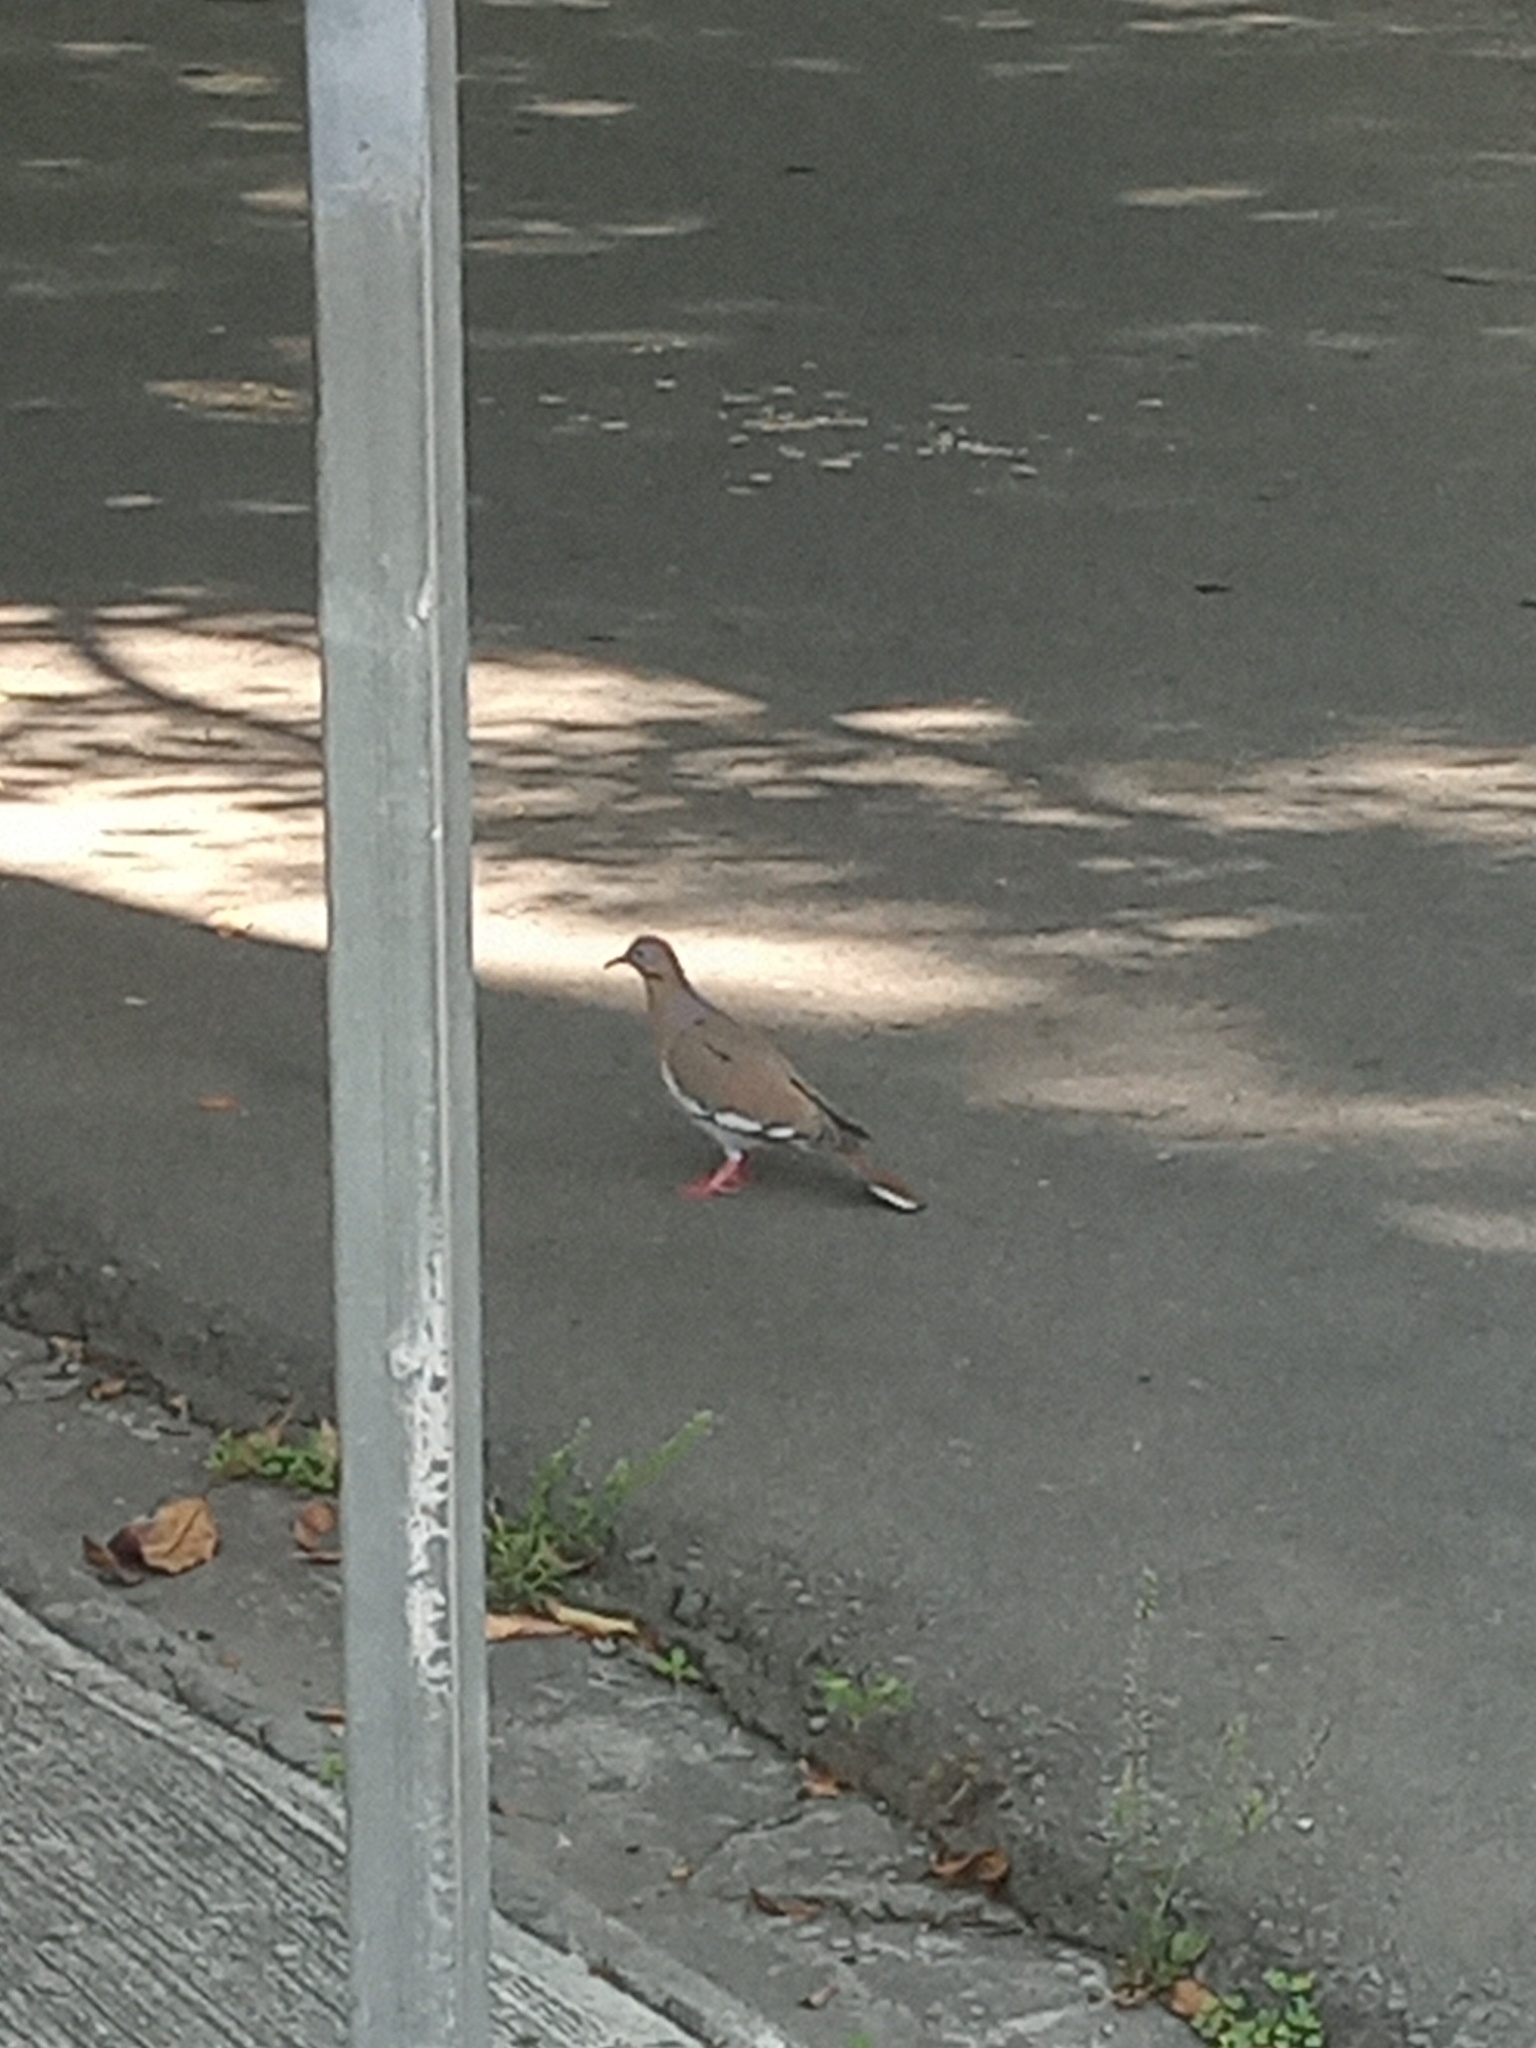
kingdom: Animalia
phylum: Chordata
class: Aves
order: Columbiformes
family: Columbidae
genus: Zenaida
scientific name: Zenaida asiatica
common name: White-winged dove
